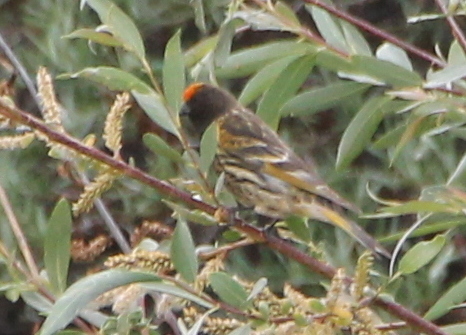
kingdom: Animalia
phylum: Chordata
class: Aves
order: Passeriformes
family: Fringillidae
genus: Serinus
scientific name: Serinus pusillus
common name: Red-fronted serin
